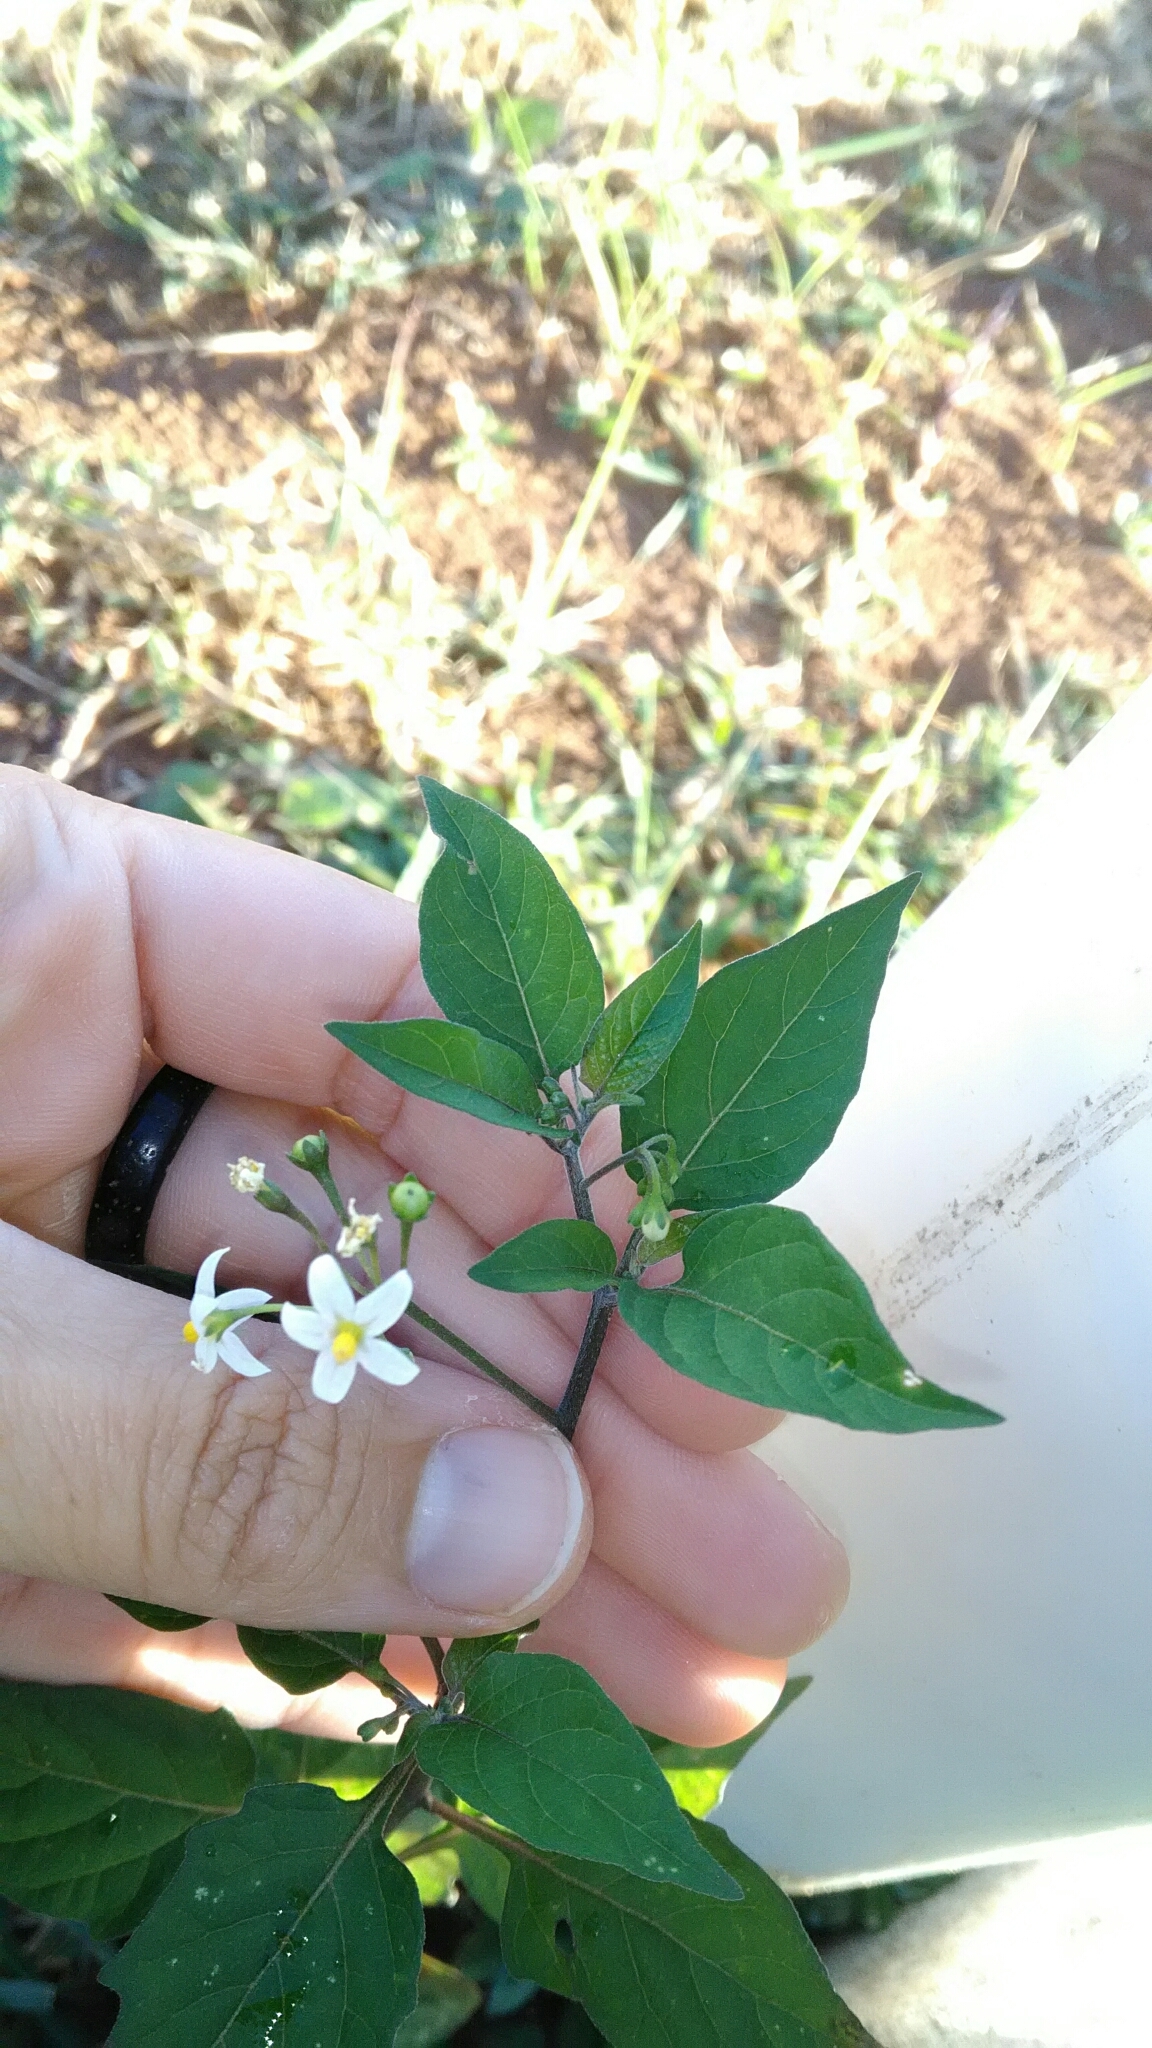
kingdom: Plantae
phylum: Tracheophyta
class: Magnoliopsida
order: Solanales
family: Solanaceae
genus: Solanum
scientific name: Solanum americanum
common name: American black nightshade
